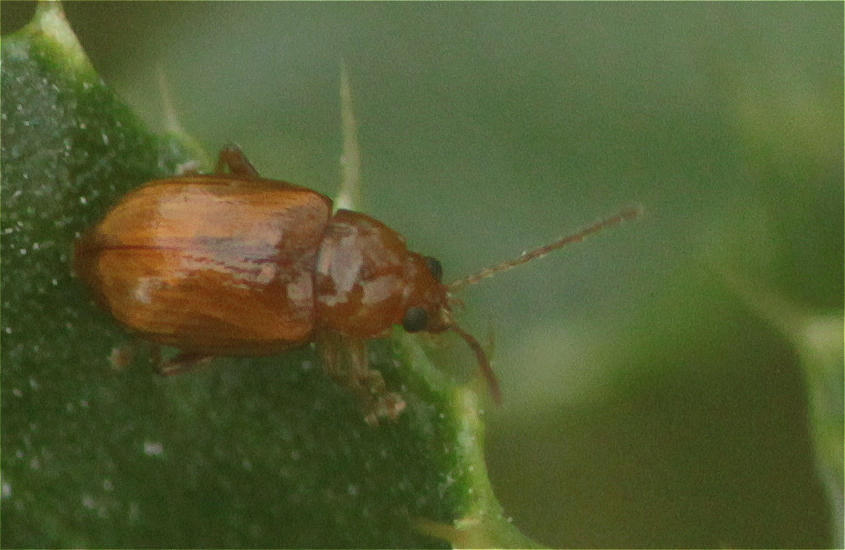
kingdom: Animalia
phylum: Arthropoda
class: Insecta
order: Coleoptera
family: Chrysomelidae
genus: Neocrepidodera
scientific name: Neocrepidodera ferruginea
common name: Wheat flea beetle
